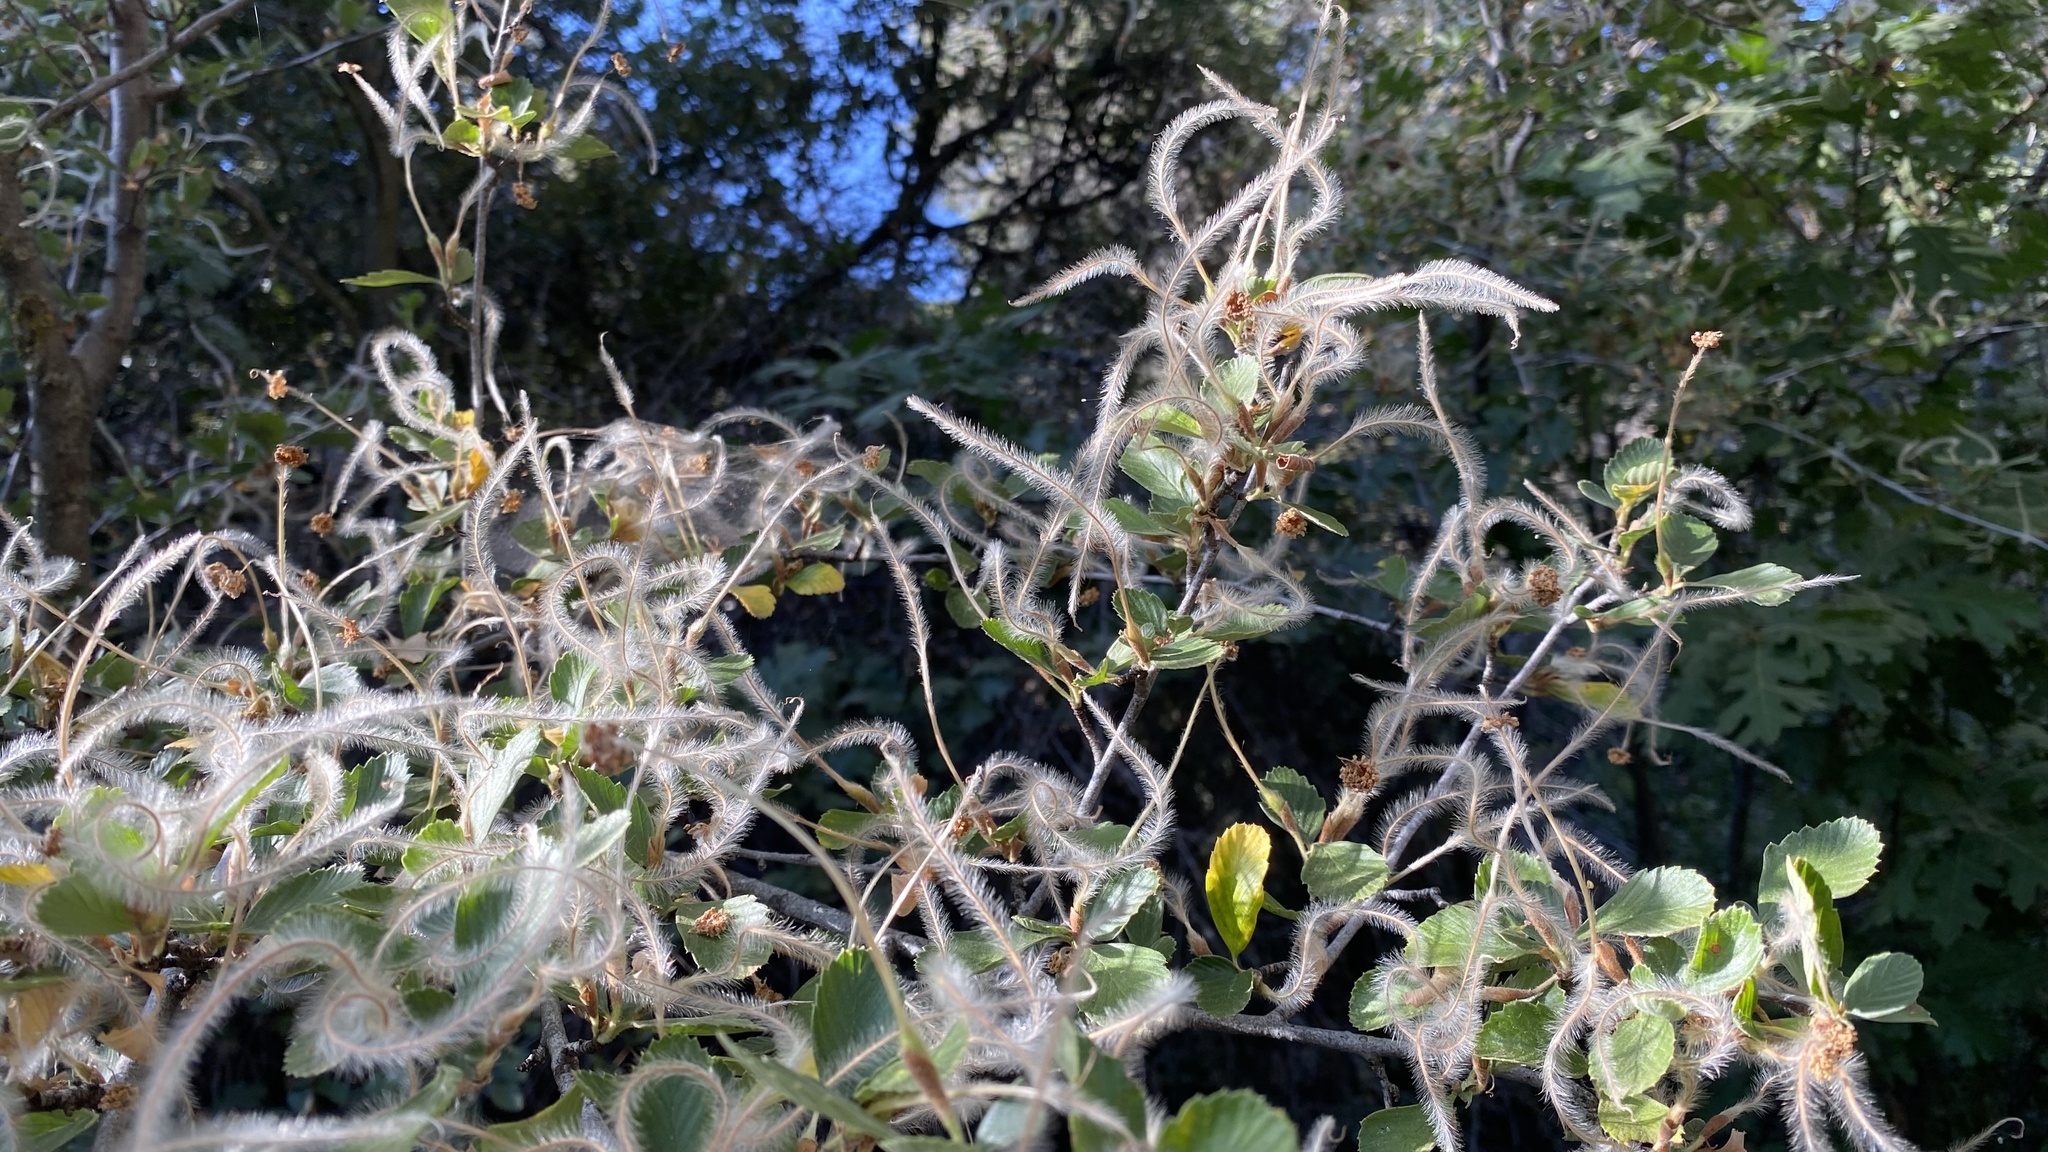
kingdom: Plantae
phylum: Tracheophyta
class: Magnoliopsida
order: Rosales
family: Rosaceae
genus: Cercocarpus
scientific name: Cercocarpus betuloides
